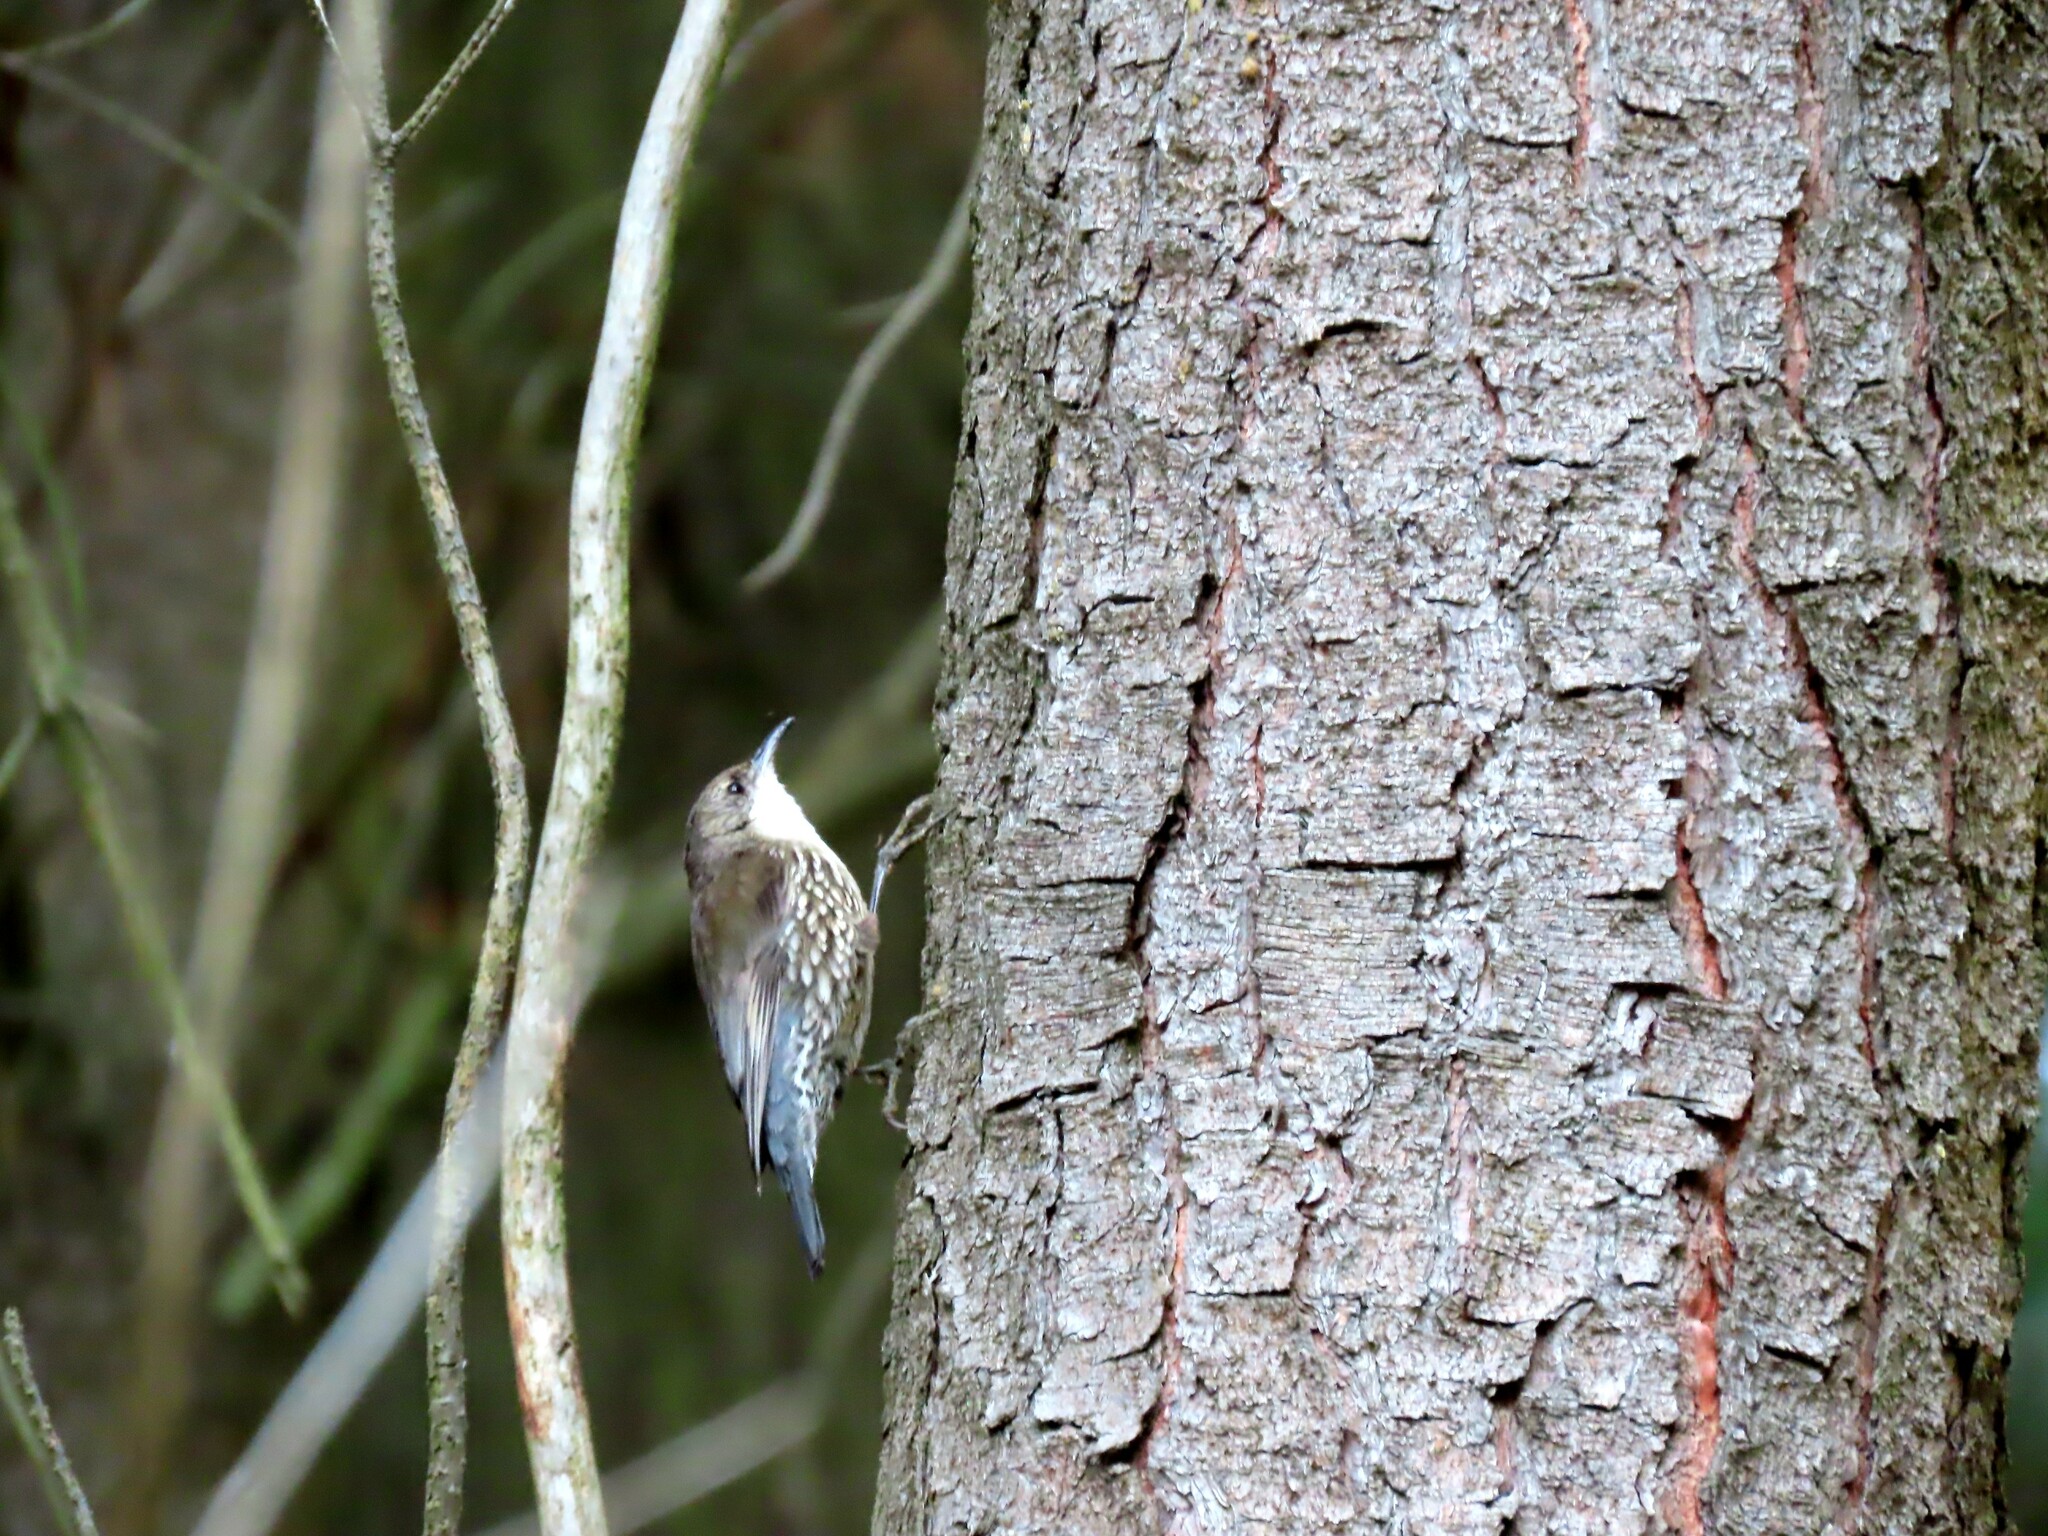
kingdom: Animalia
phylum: Chordata
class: Aves
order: Passeriformes
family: Climacteridae
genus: Cormobates
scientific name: Cormobates leucophaea
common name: White-throated treecreeper
